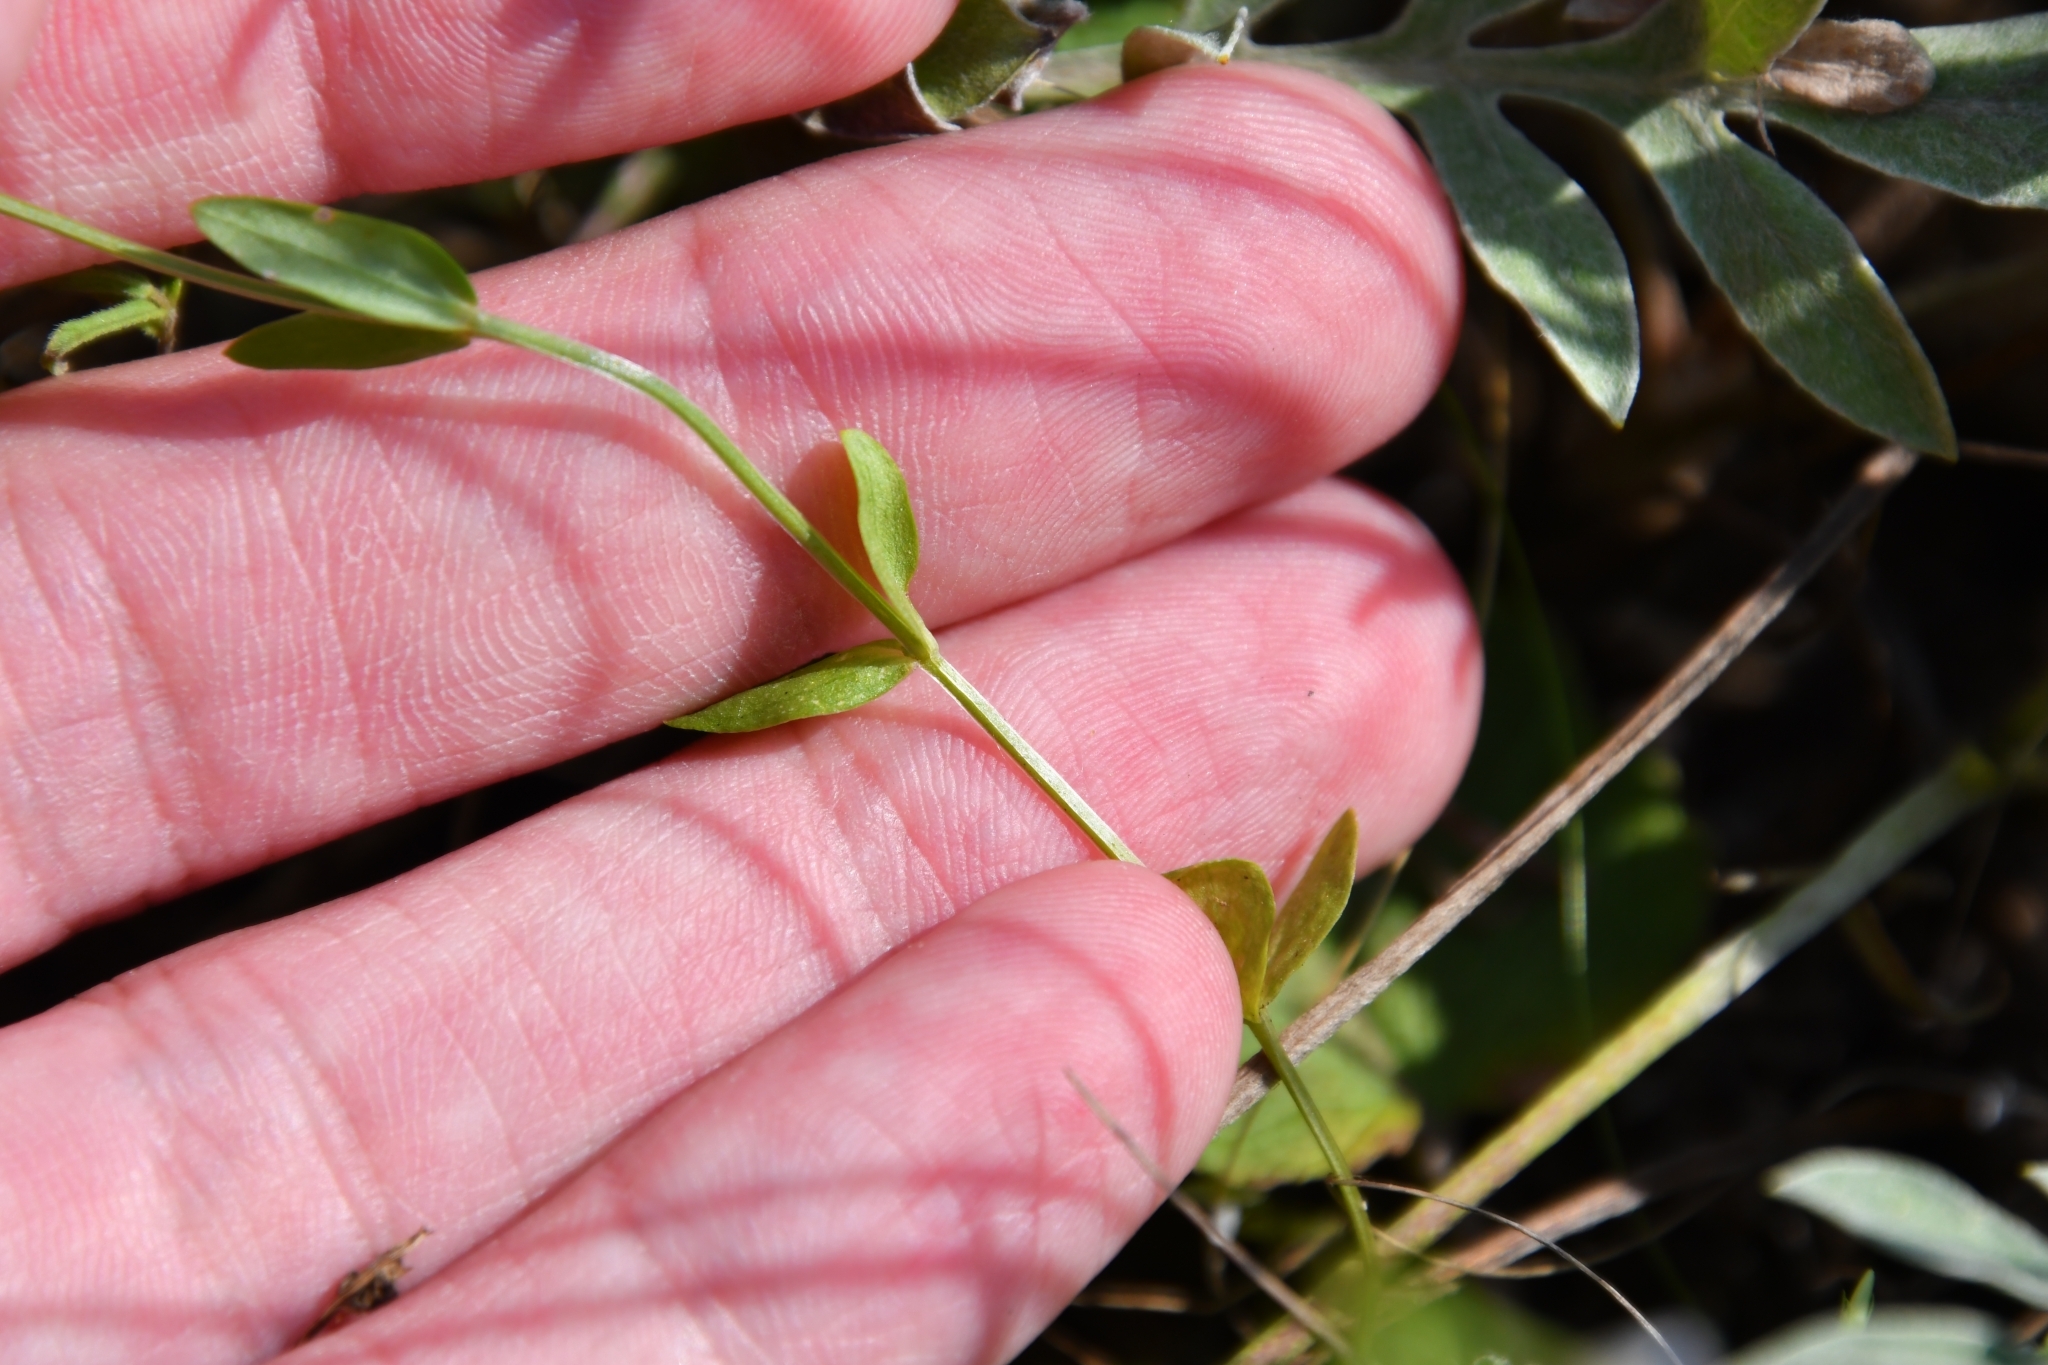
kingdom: Plantae
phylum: Tracheophyta
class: Magnoliopsida
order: Gentianales
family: Gentianaceae
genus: Centaurium
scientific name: Centaurium pulchellum
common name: Lesser centaury
